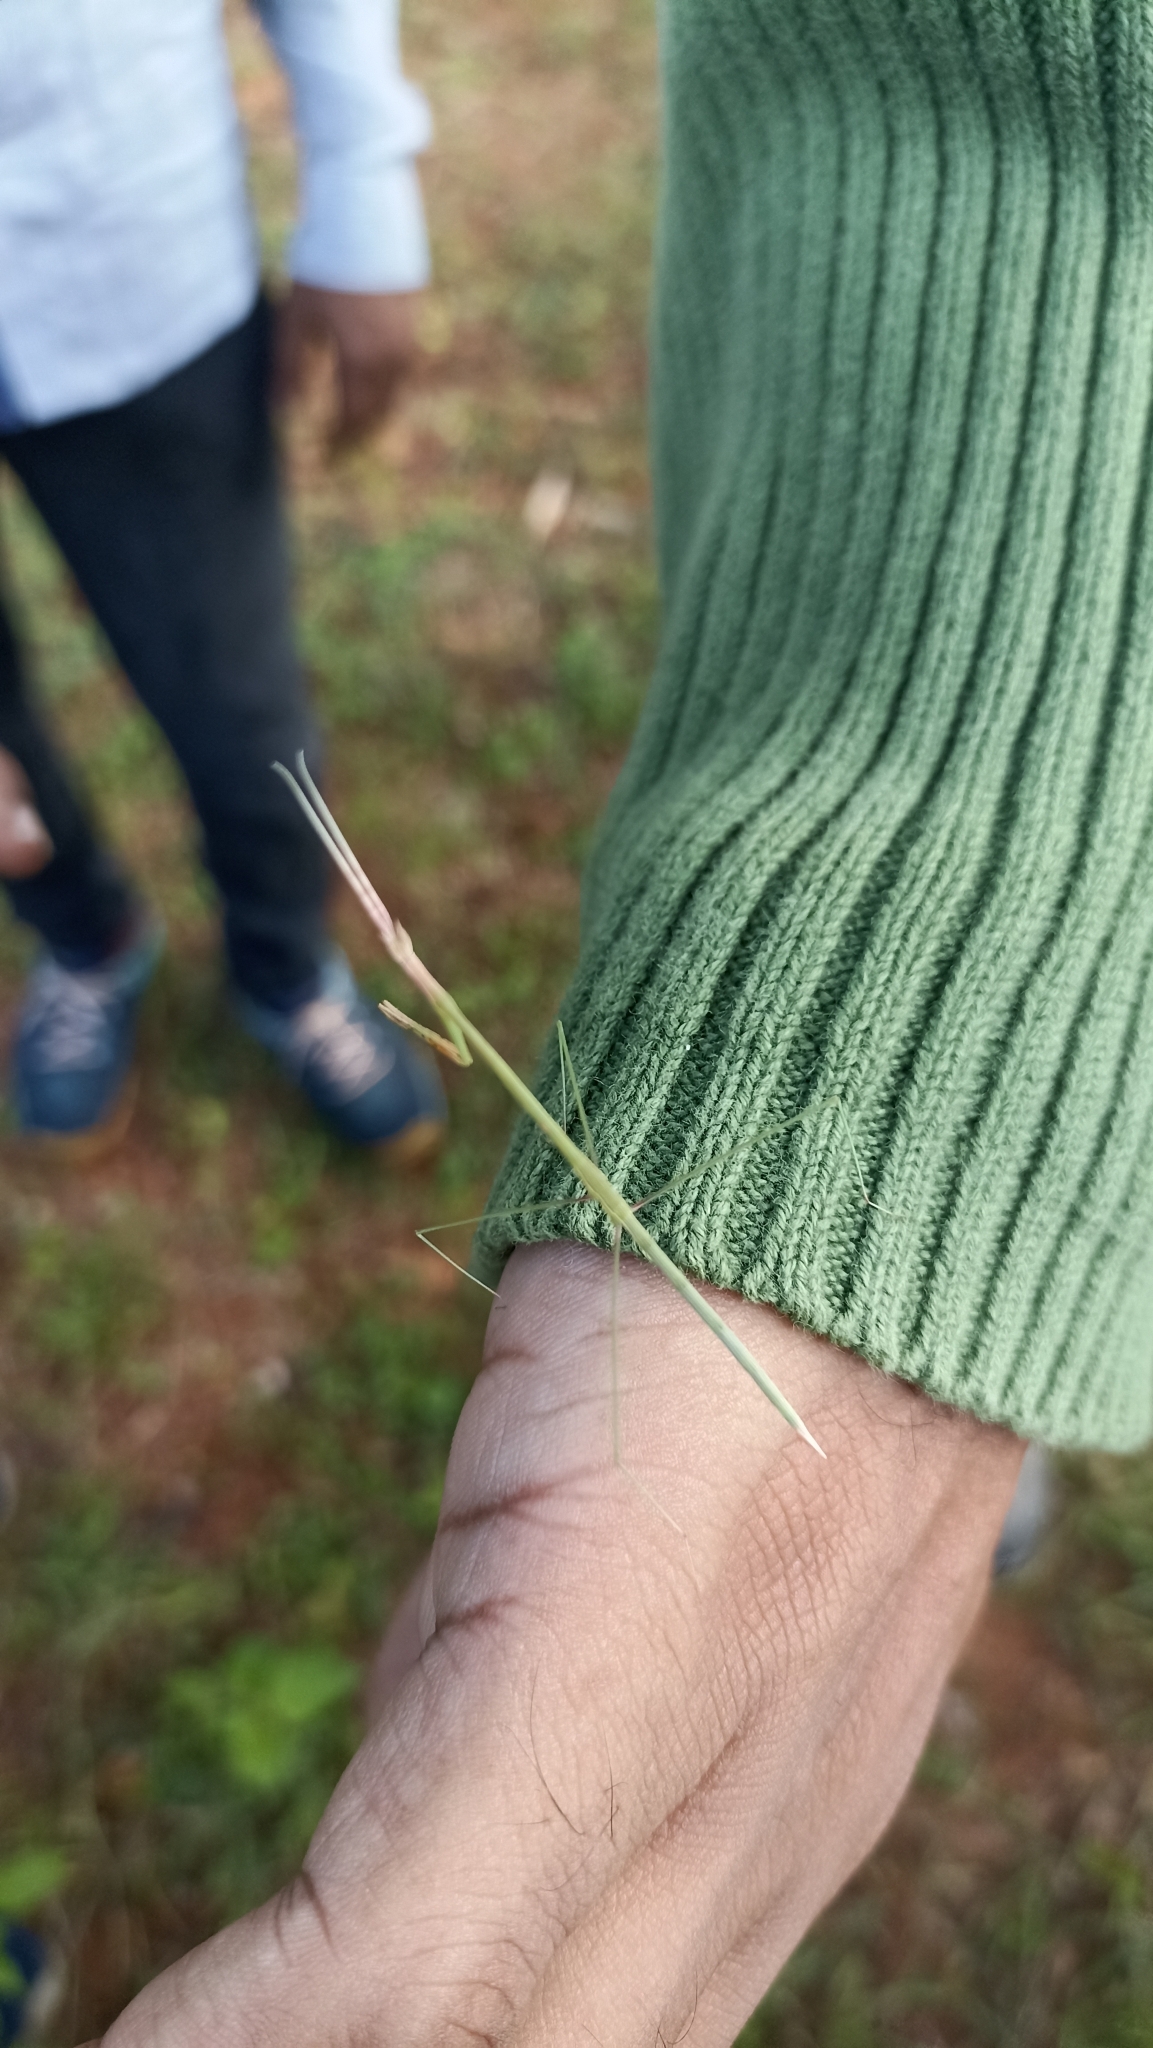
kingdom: Animalia
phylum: Arthropoda
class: Insecta
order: Mantodea
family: Eremiaphilidae
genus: Schizocephala
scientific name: Schizocephala bicornis
